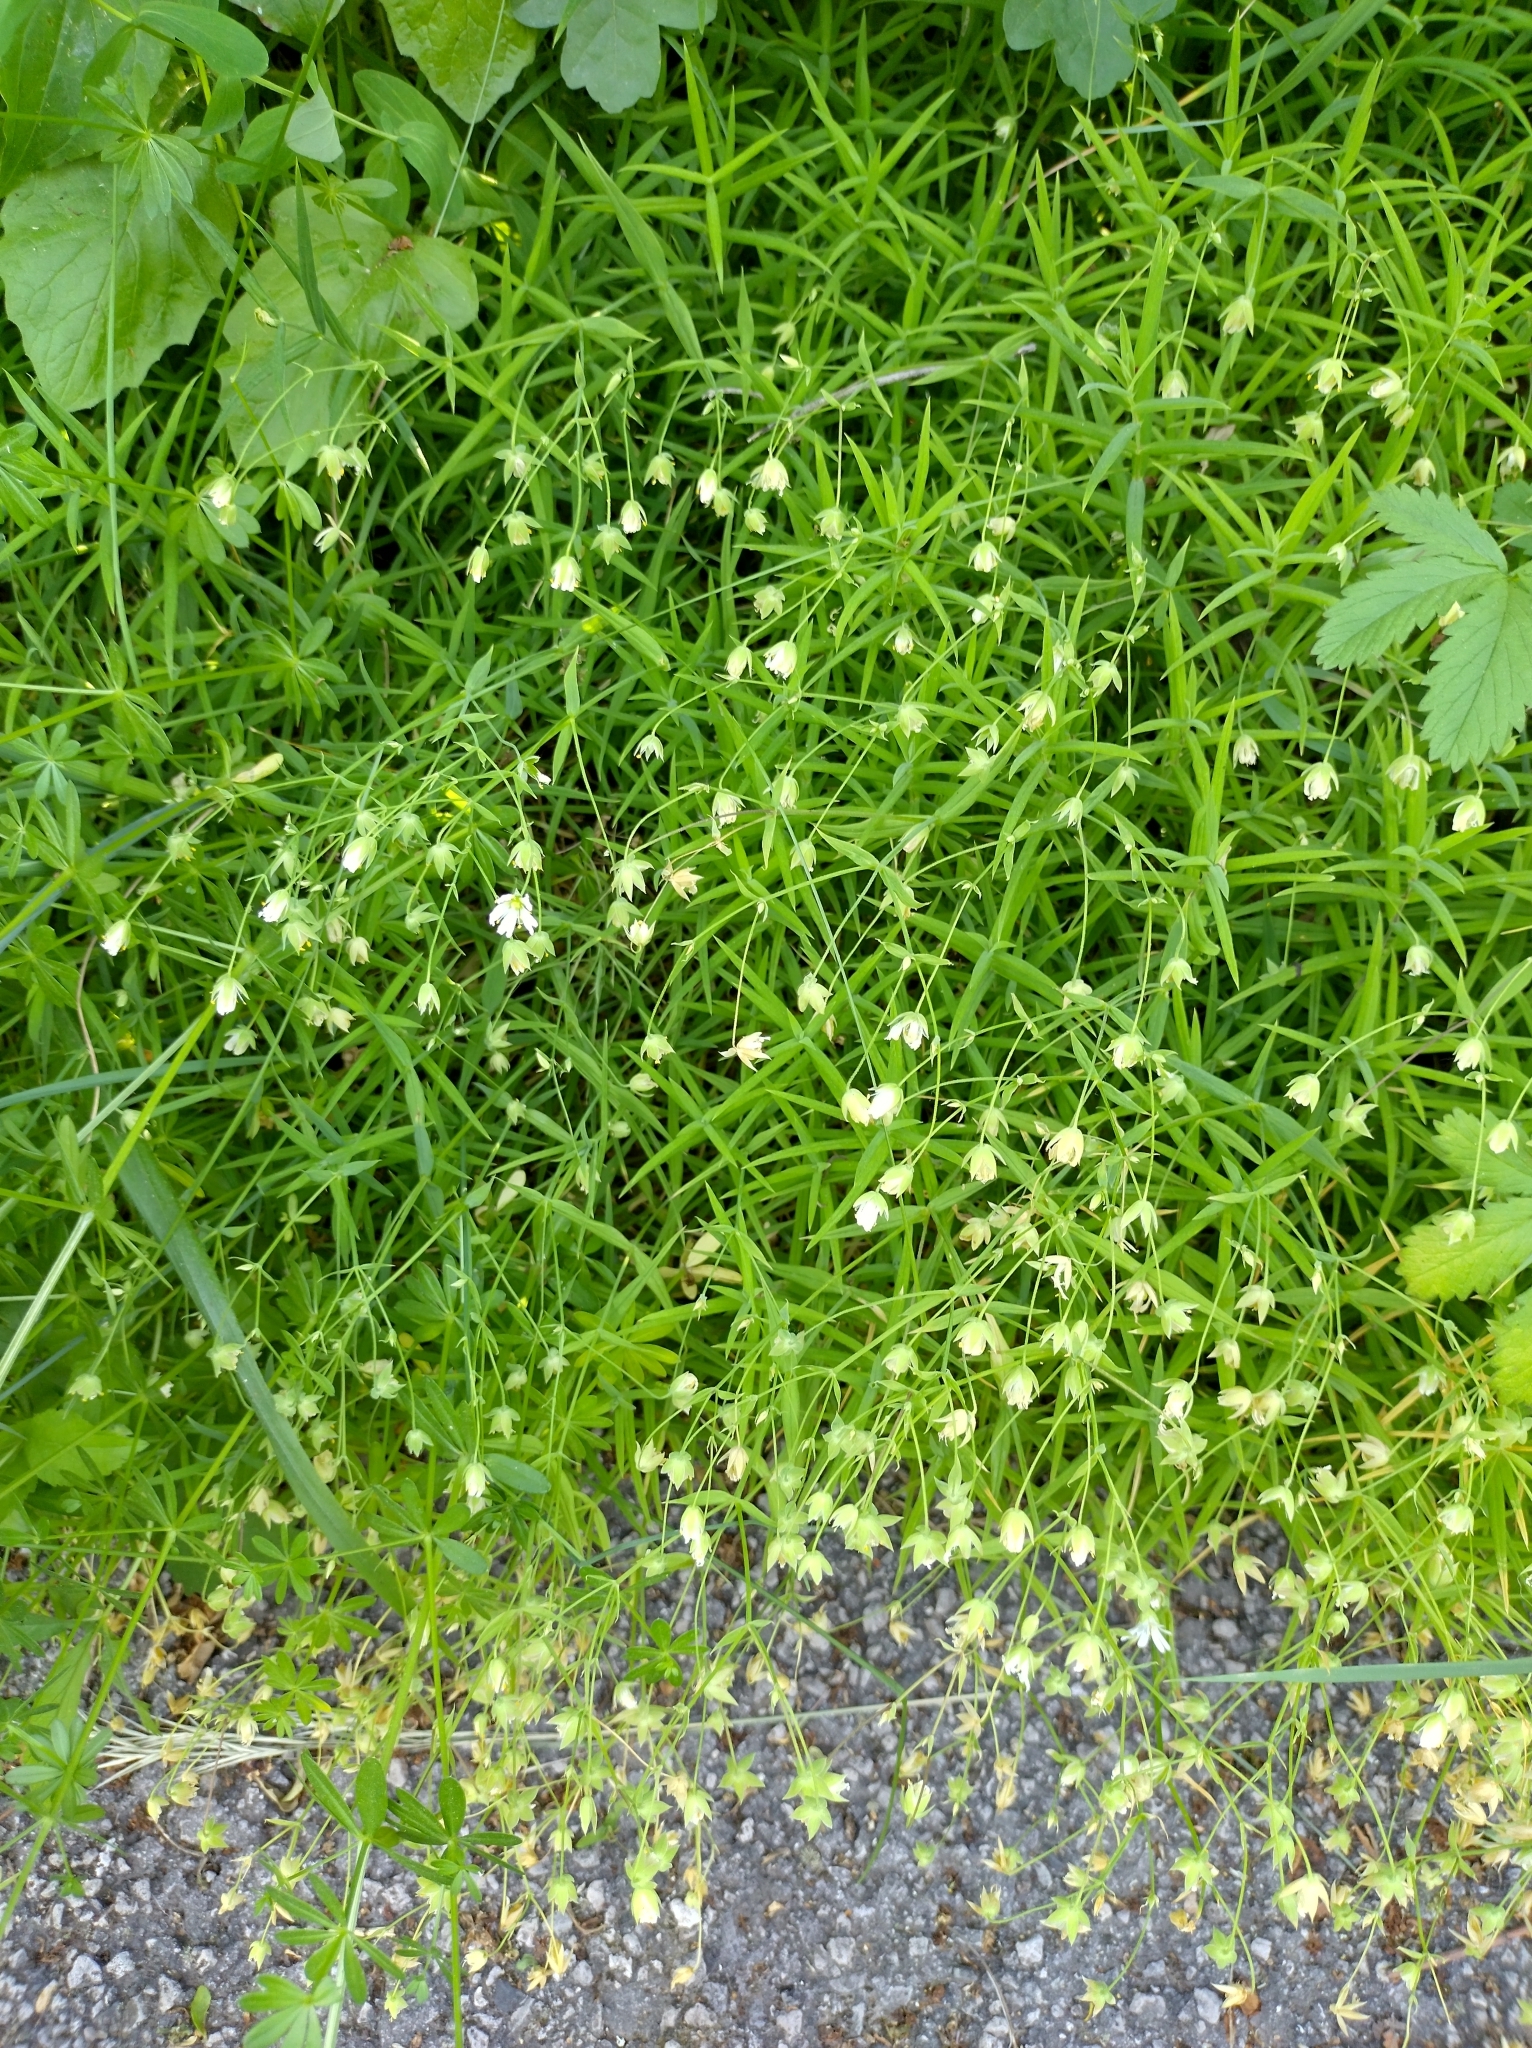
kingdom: Plantae
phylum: Tracheophyta
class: Magnoliopsida
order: Caryophyllales
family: Caryophyllaceae
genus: Rabelera
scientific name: Rabelera holostea
